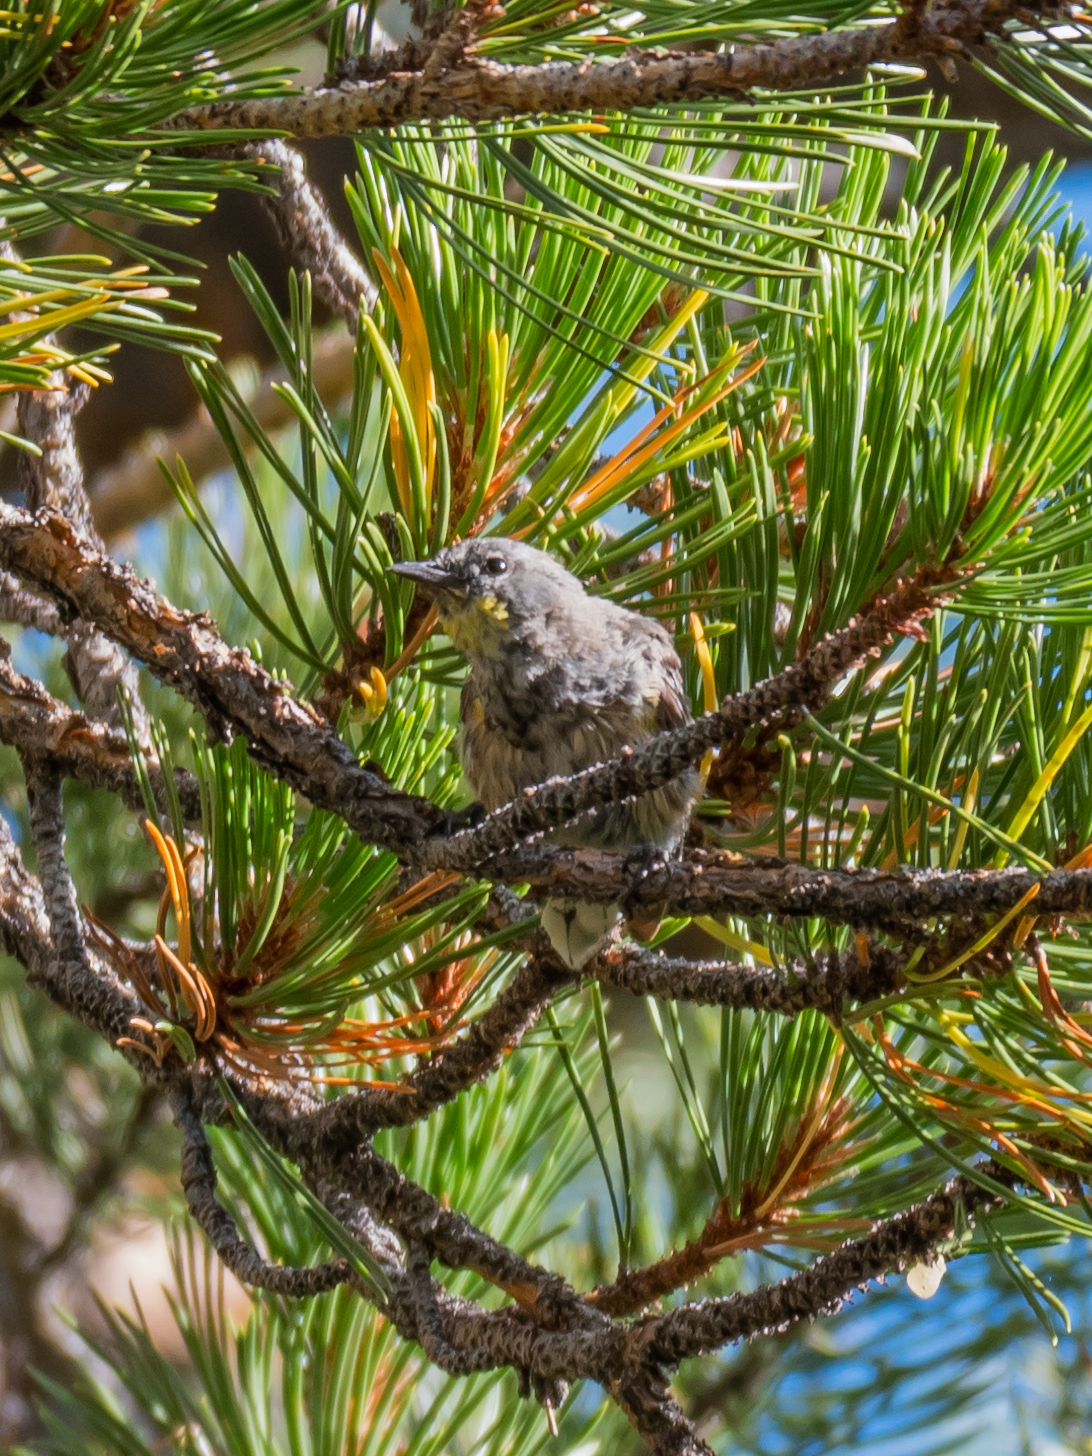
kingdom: Animalia
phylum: Chordata
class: Aves
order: Passeriformes
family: Parulidae
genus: Setophaga
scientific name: Setophaga coronata
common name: Myrtle warbler
